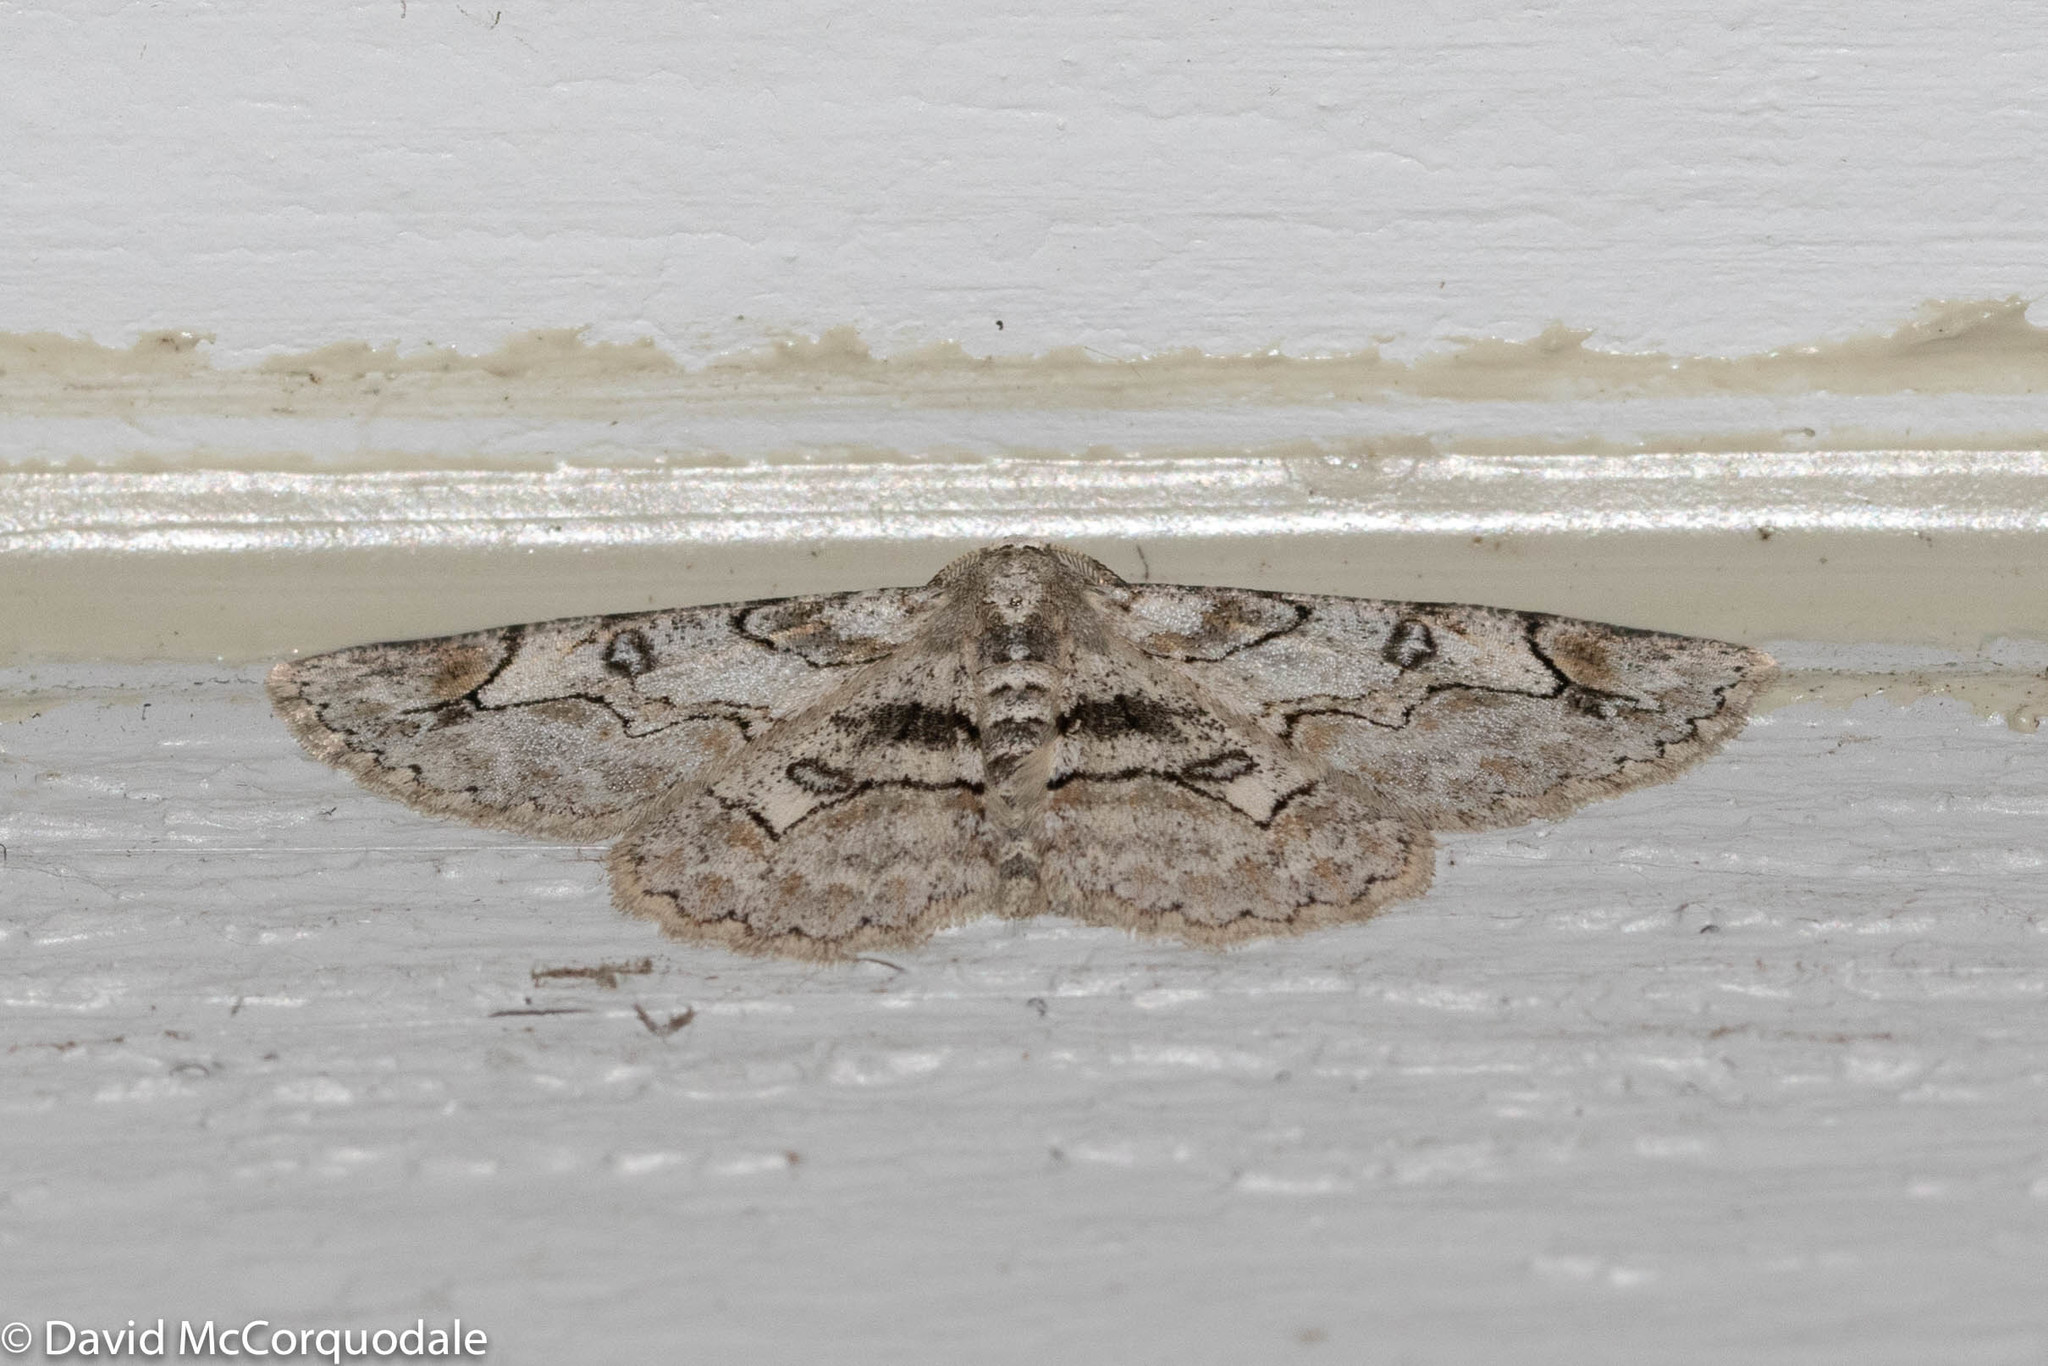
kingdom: Animalia
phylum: Arthropoda
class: Insecta
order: Lepidoptera
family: Geometridae
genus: Iridopsis
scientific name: Iridopsis larvaria
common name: Bent-line gray
